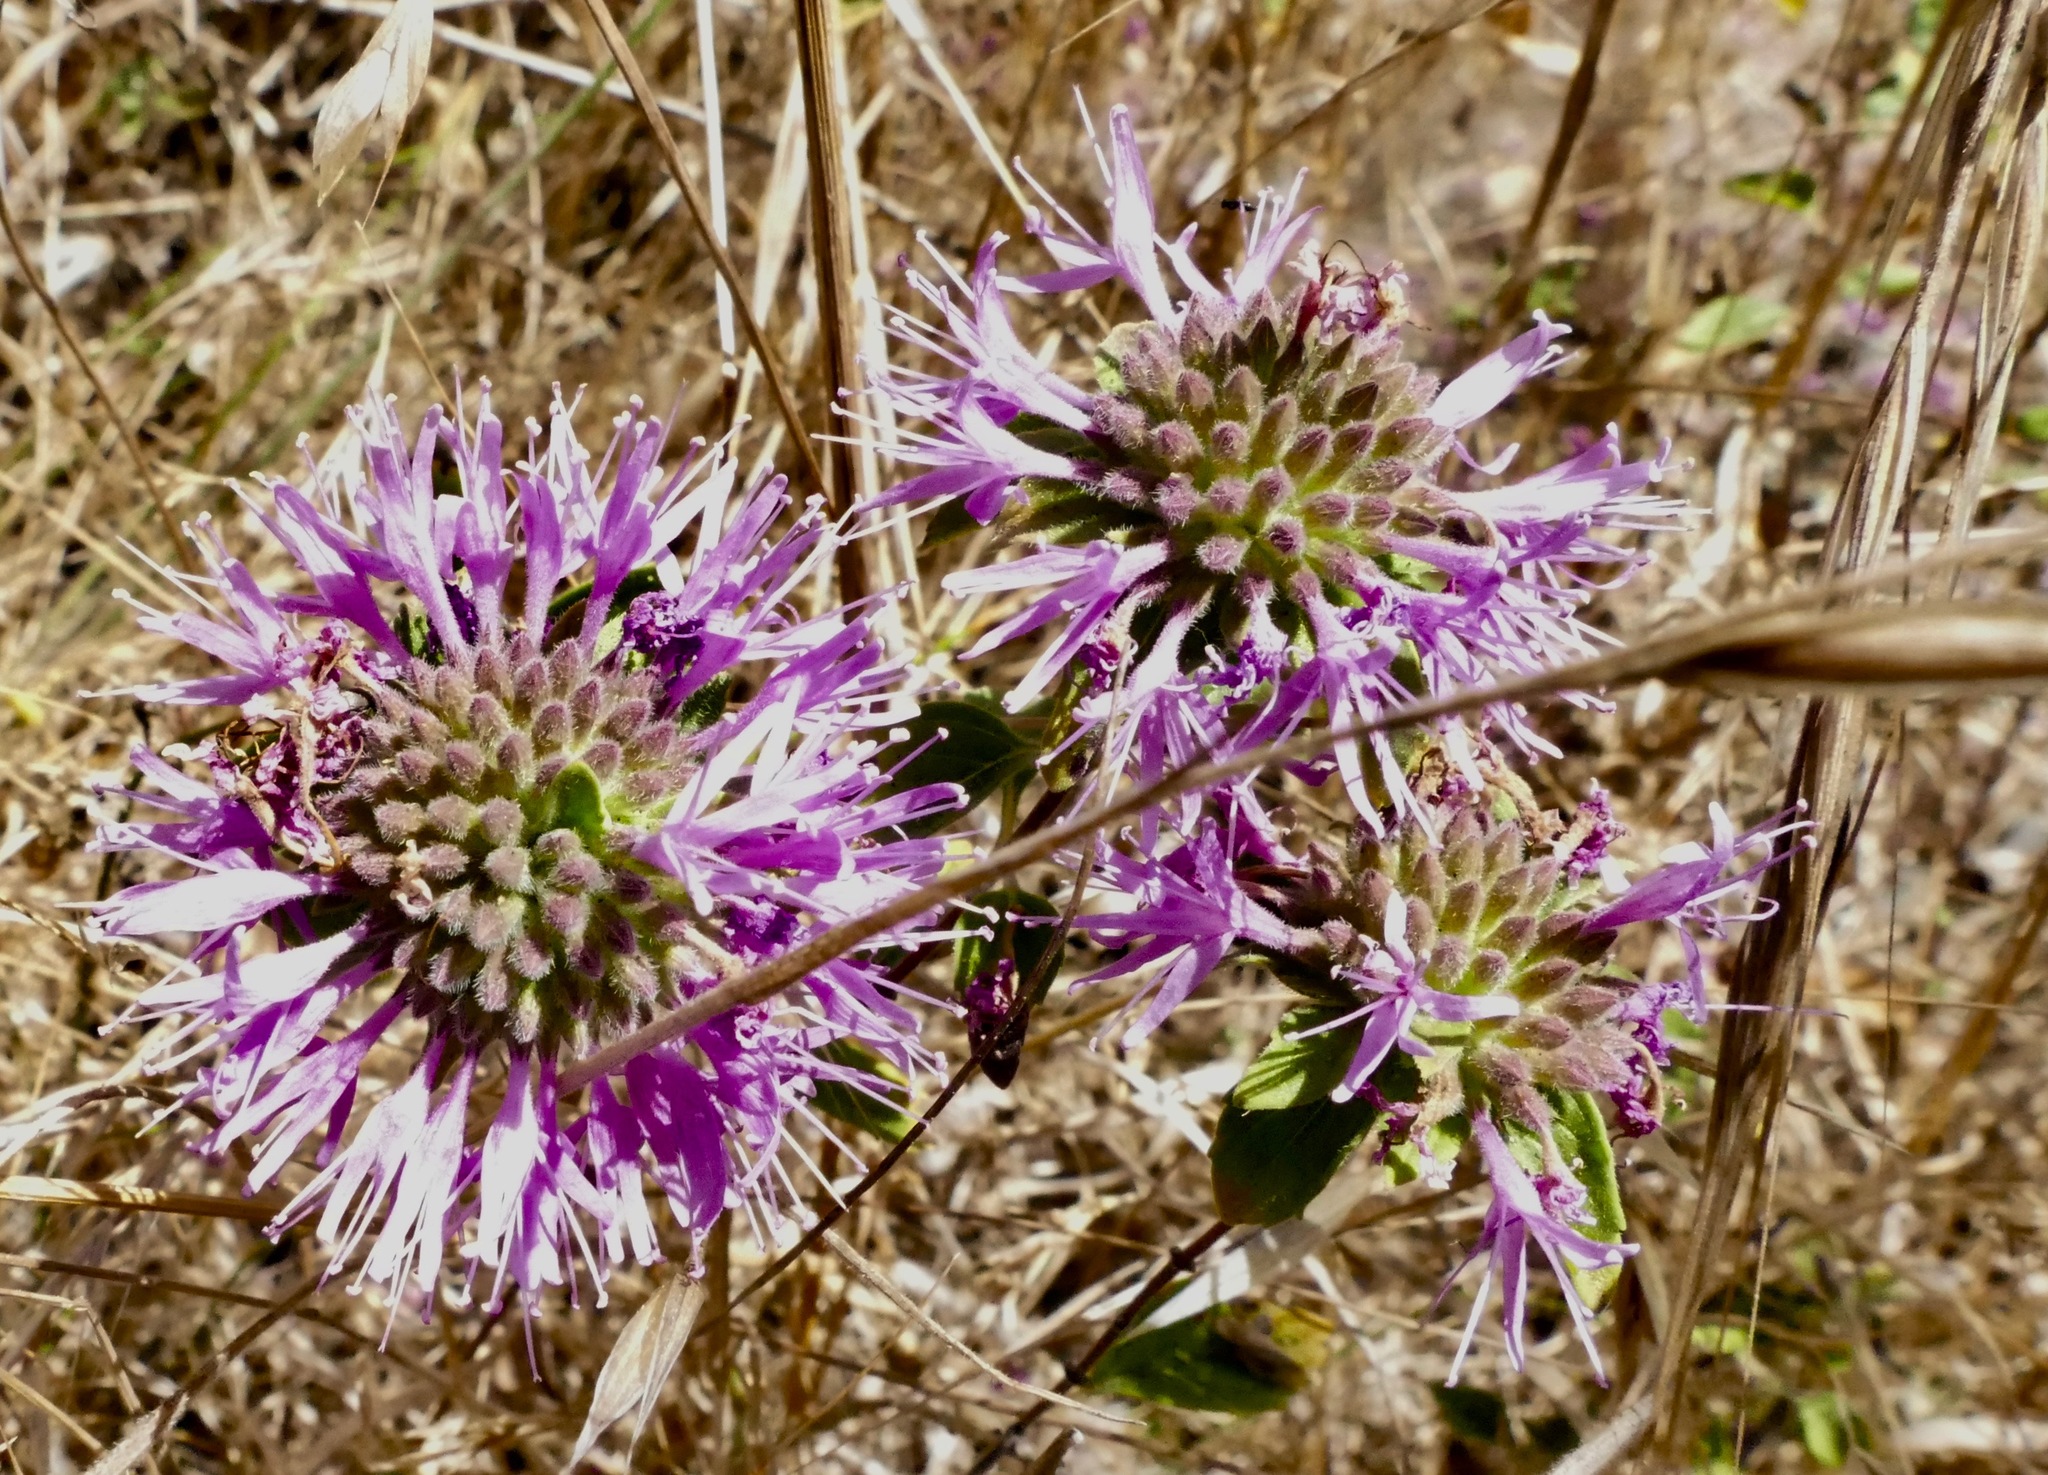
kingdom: Plantae
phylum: Tracheophyta
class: Magnoliopsida
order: Lamiales
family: Lamiaceae
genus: Monardella
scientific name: Monardella odoratissima
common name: Pacific monardella
